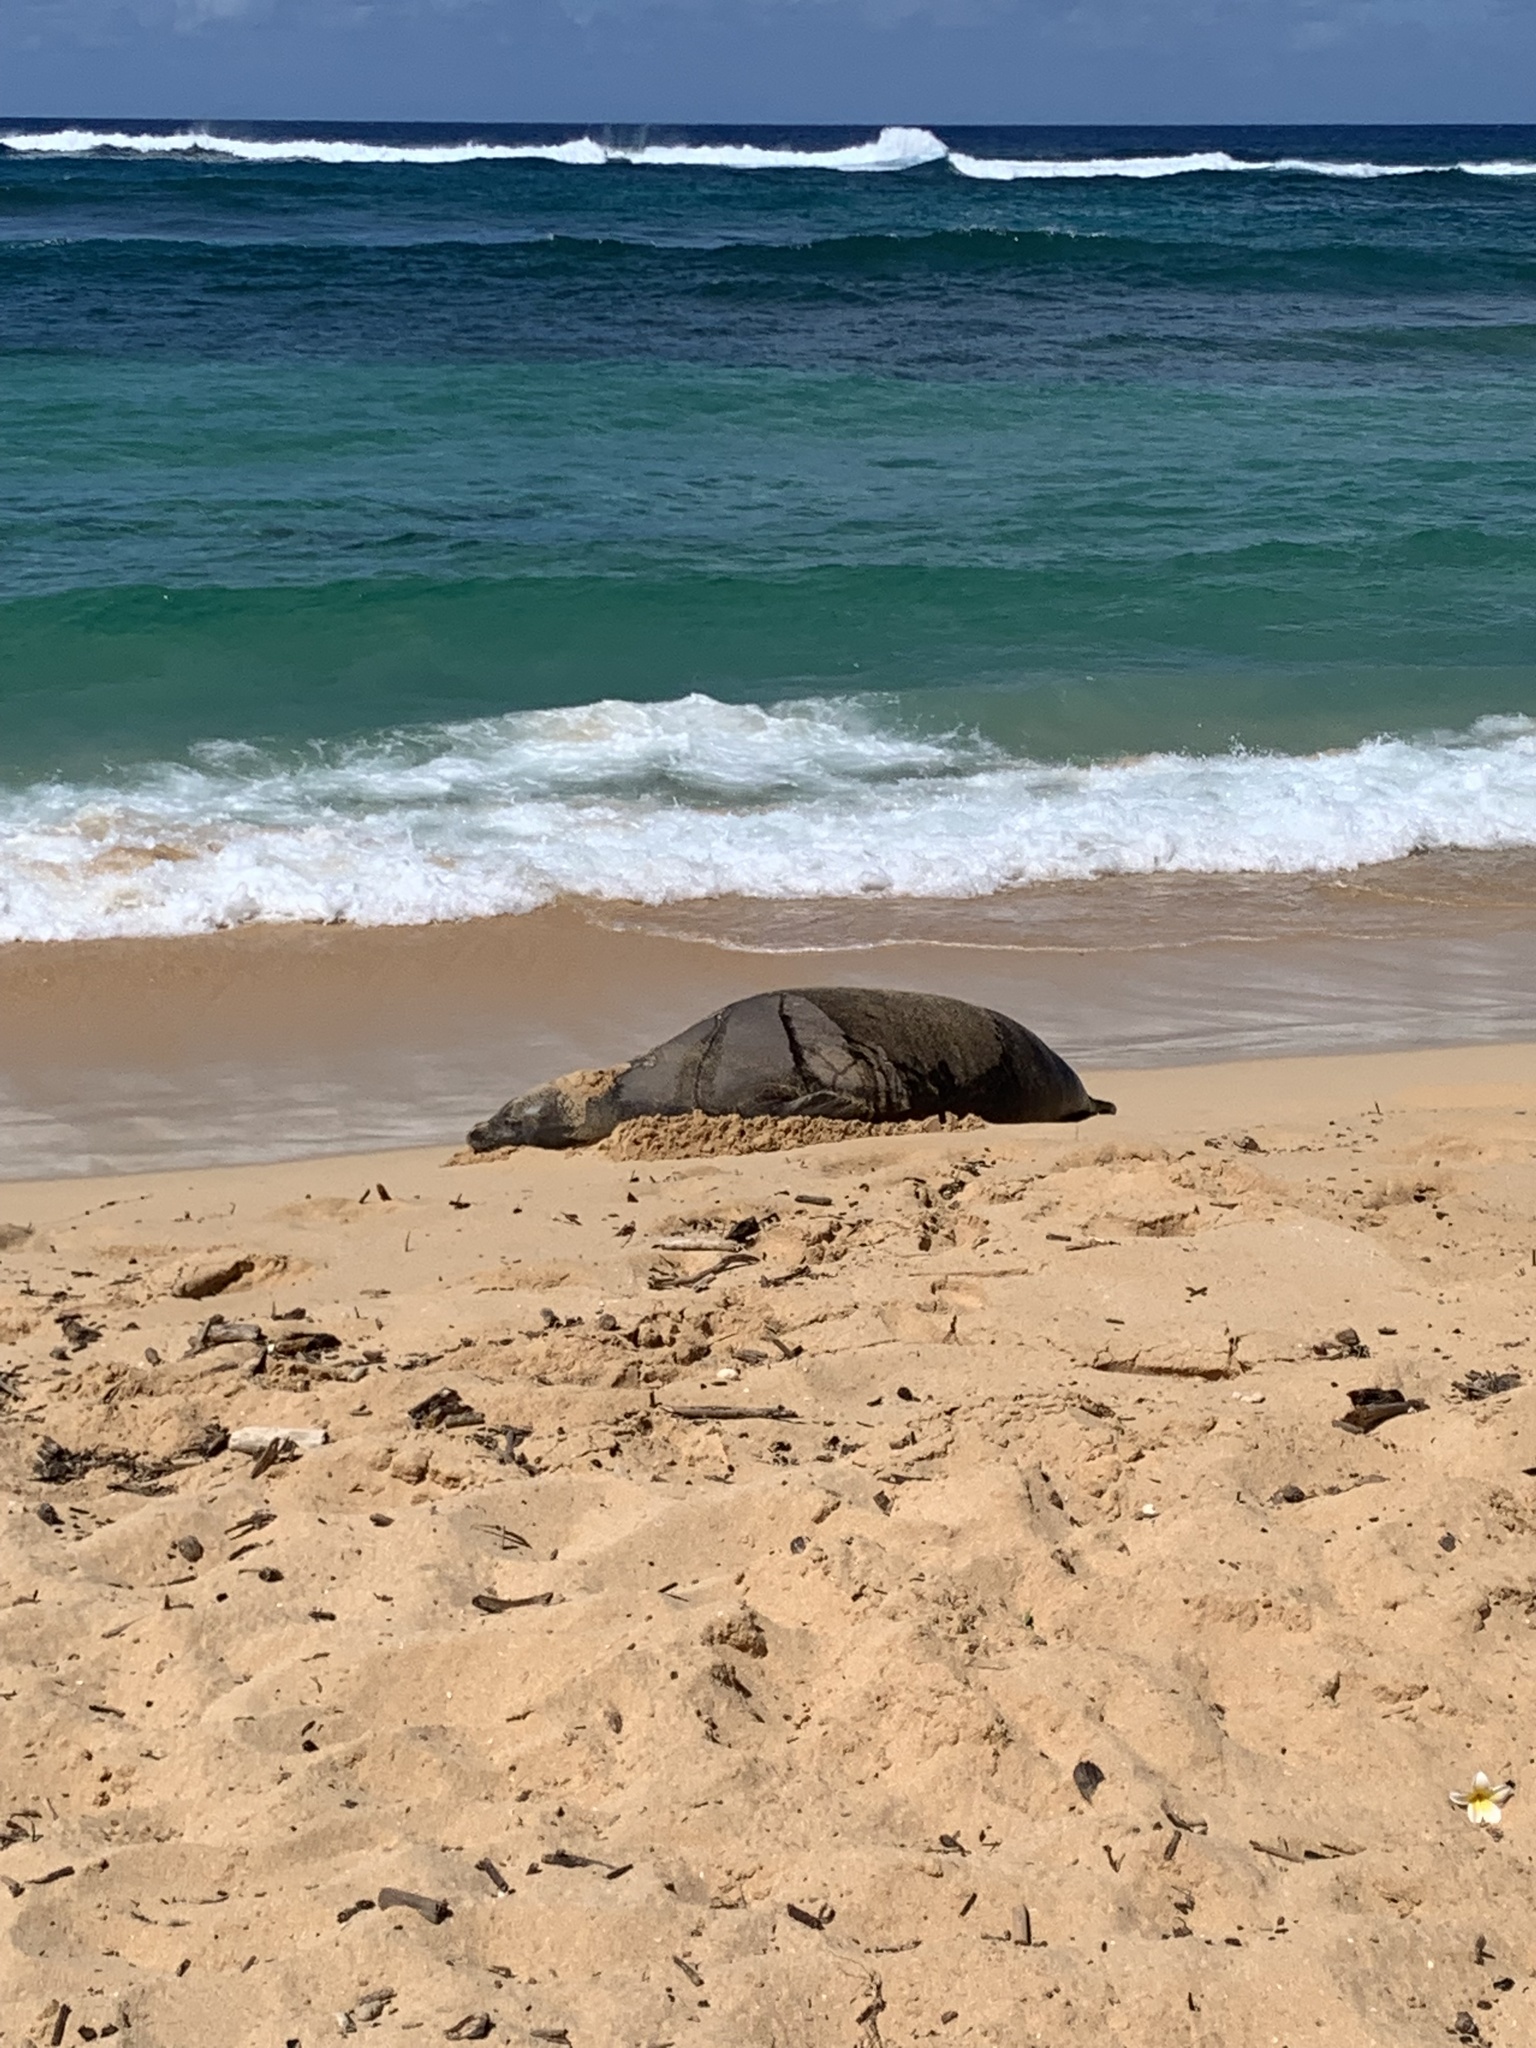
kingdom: Animalia
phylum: Chordata
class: Mammalia
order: Carnivora
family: Phocidae
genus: Neomonachus
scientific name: Neomonachus schauinslandi
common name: Hawaiian monk seal
